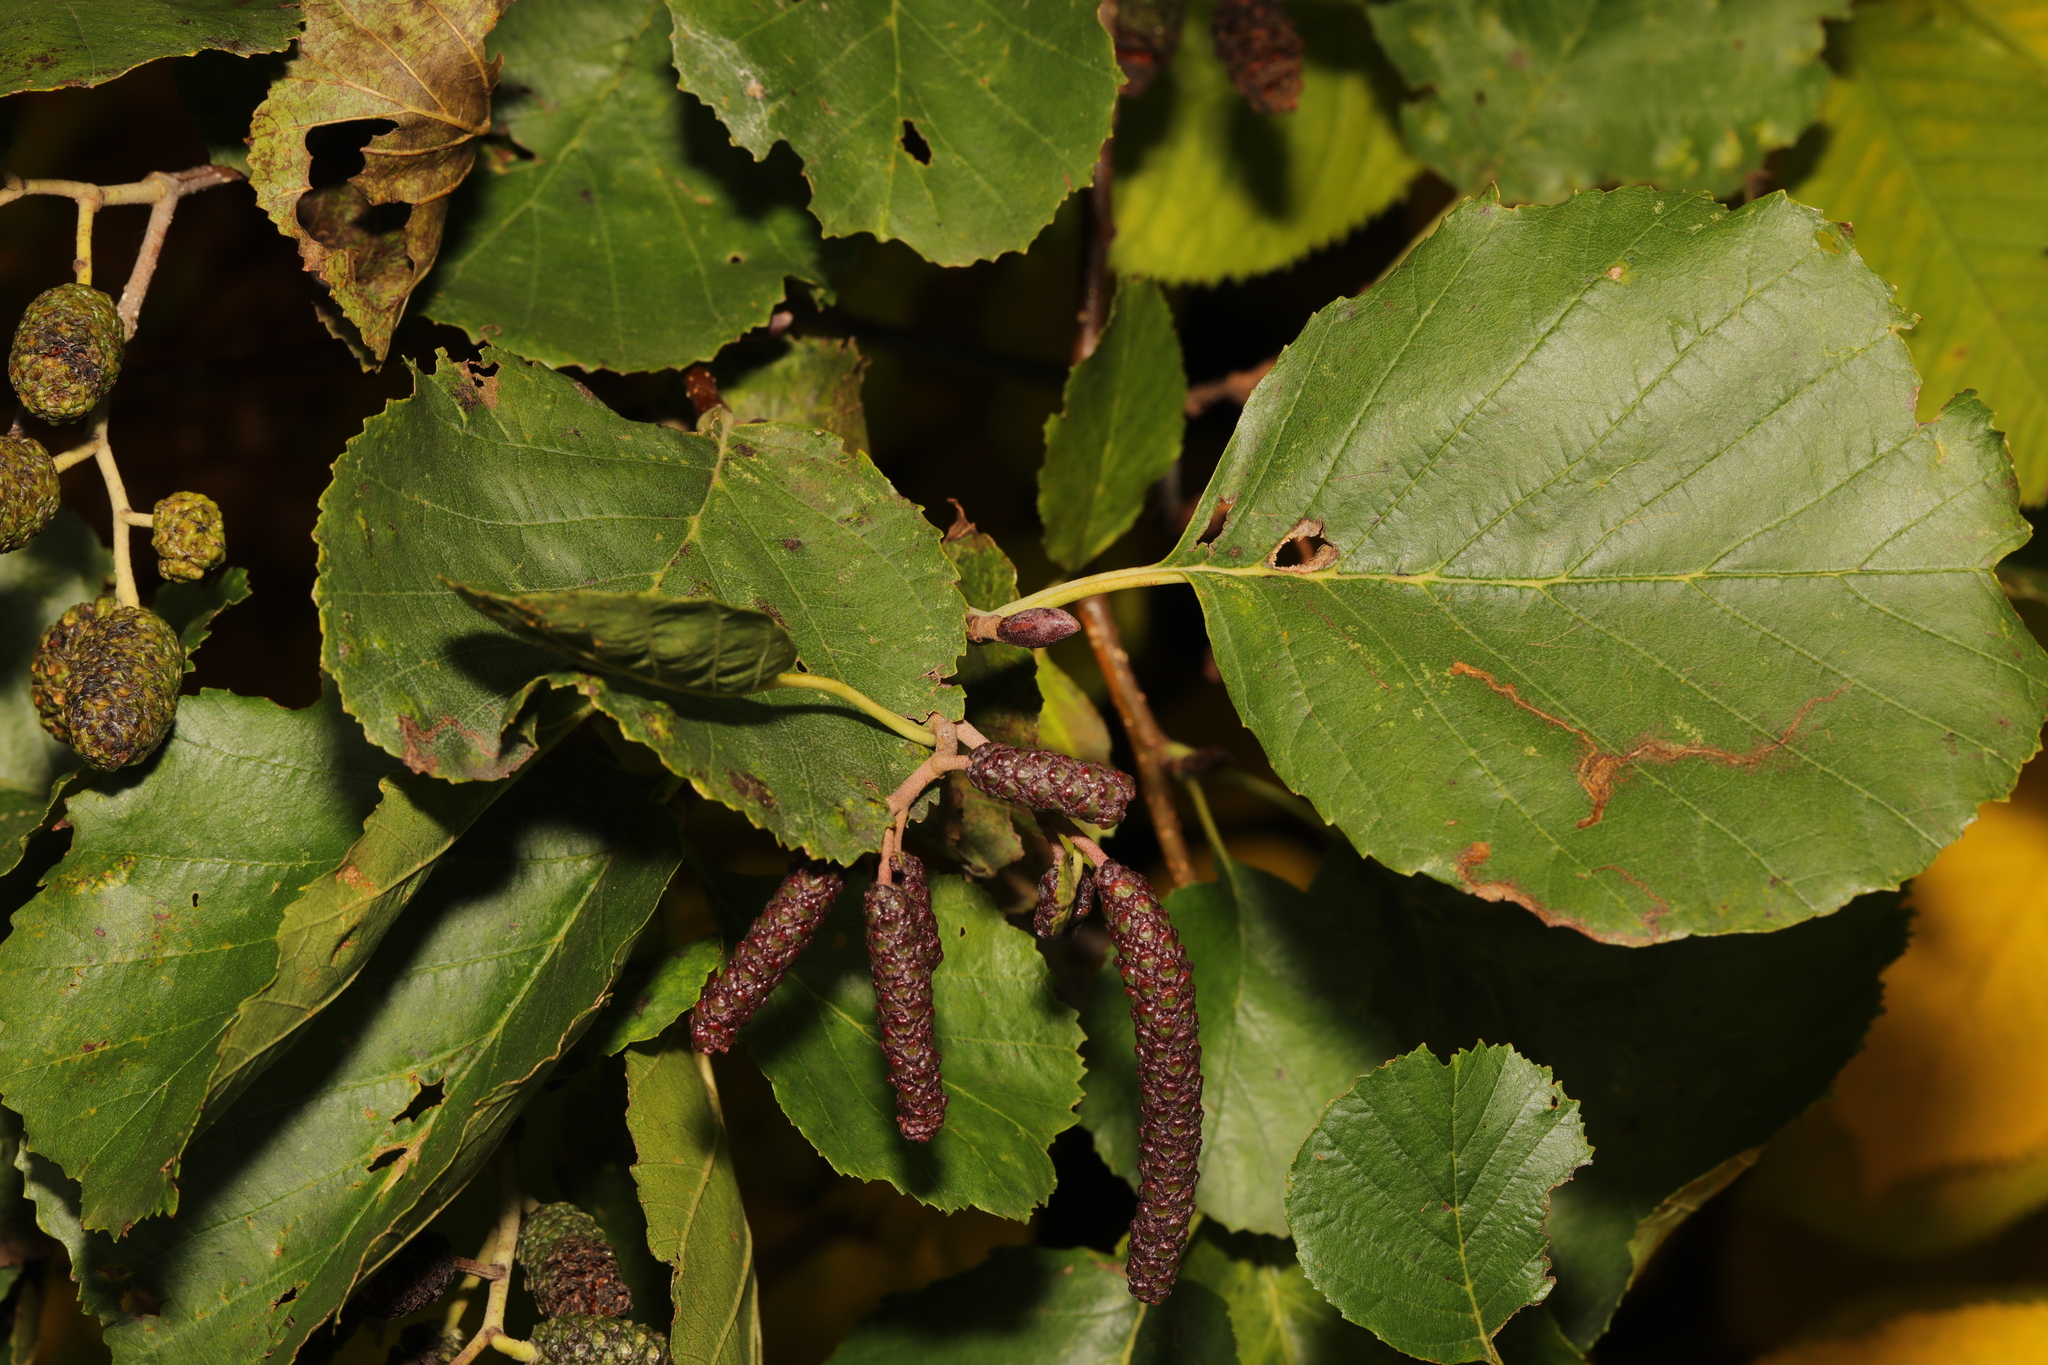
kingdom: Plantae
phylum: Tracheophyta
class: Magnoliopsida
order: Fagales
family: Betulaceae
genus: Alnus
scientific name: Alnus glutinosa
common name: Black alder
